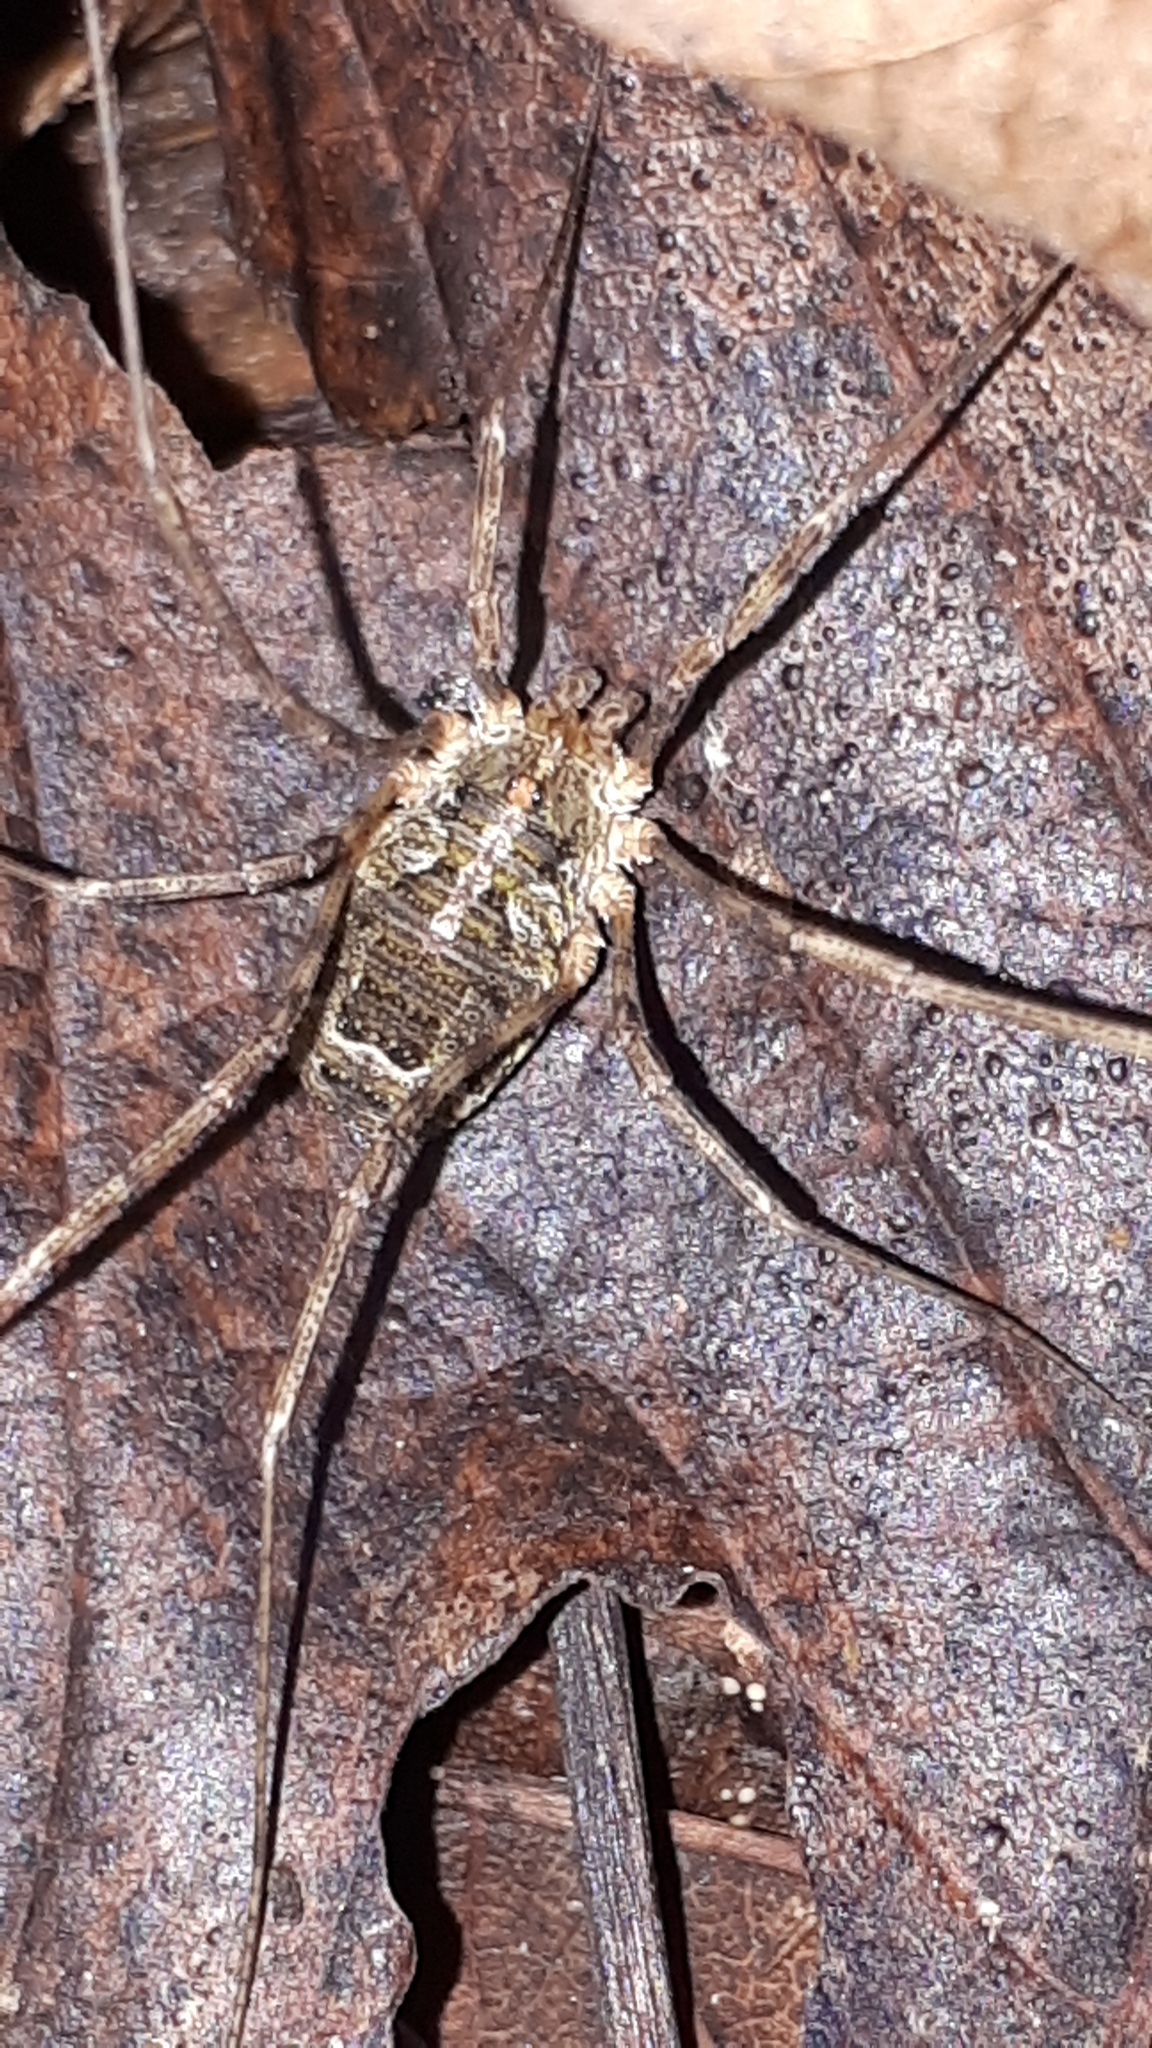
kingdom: Animalia
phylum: Arthropoda
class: Arachnida
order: Opiliones
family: Phalangiidae
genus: Lacinius
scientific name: Lacinius dentiger
